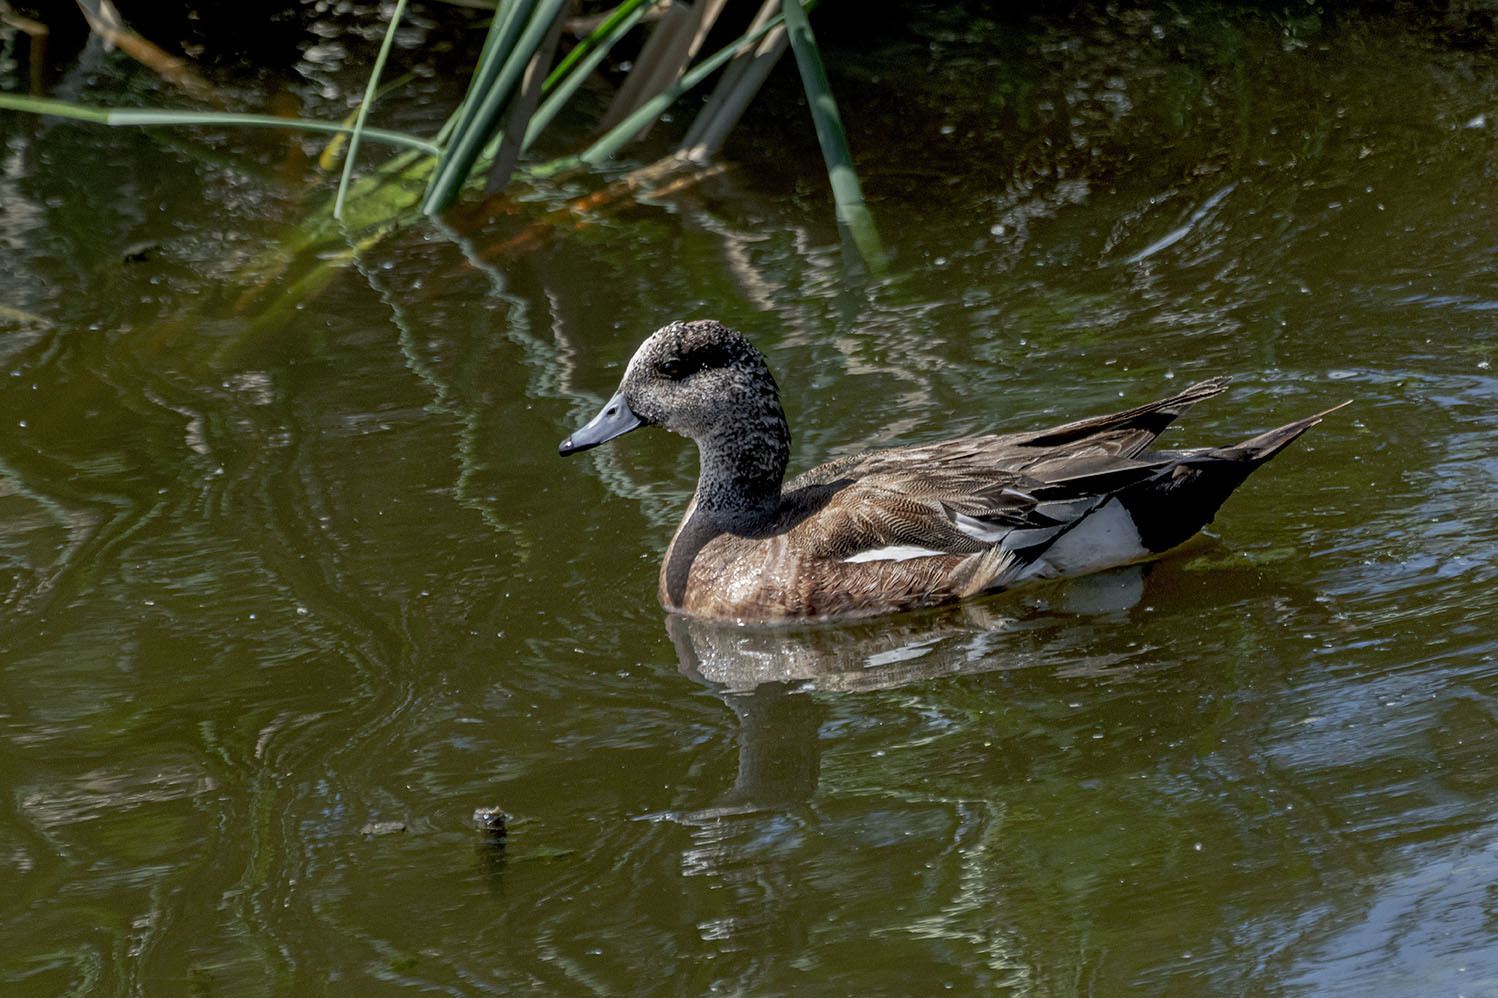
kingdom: Animalia
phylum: Chordata
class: Aves
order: Anseriformes
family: Anatidae
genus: Mareca
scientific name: Mareca americana
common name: American wigeon
